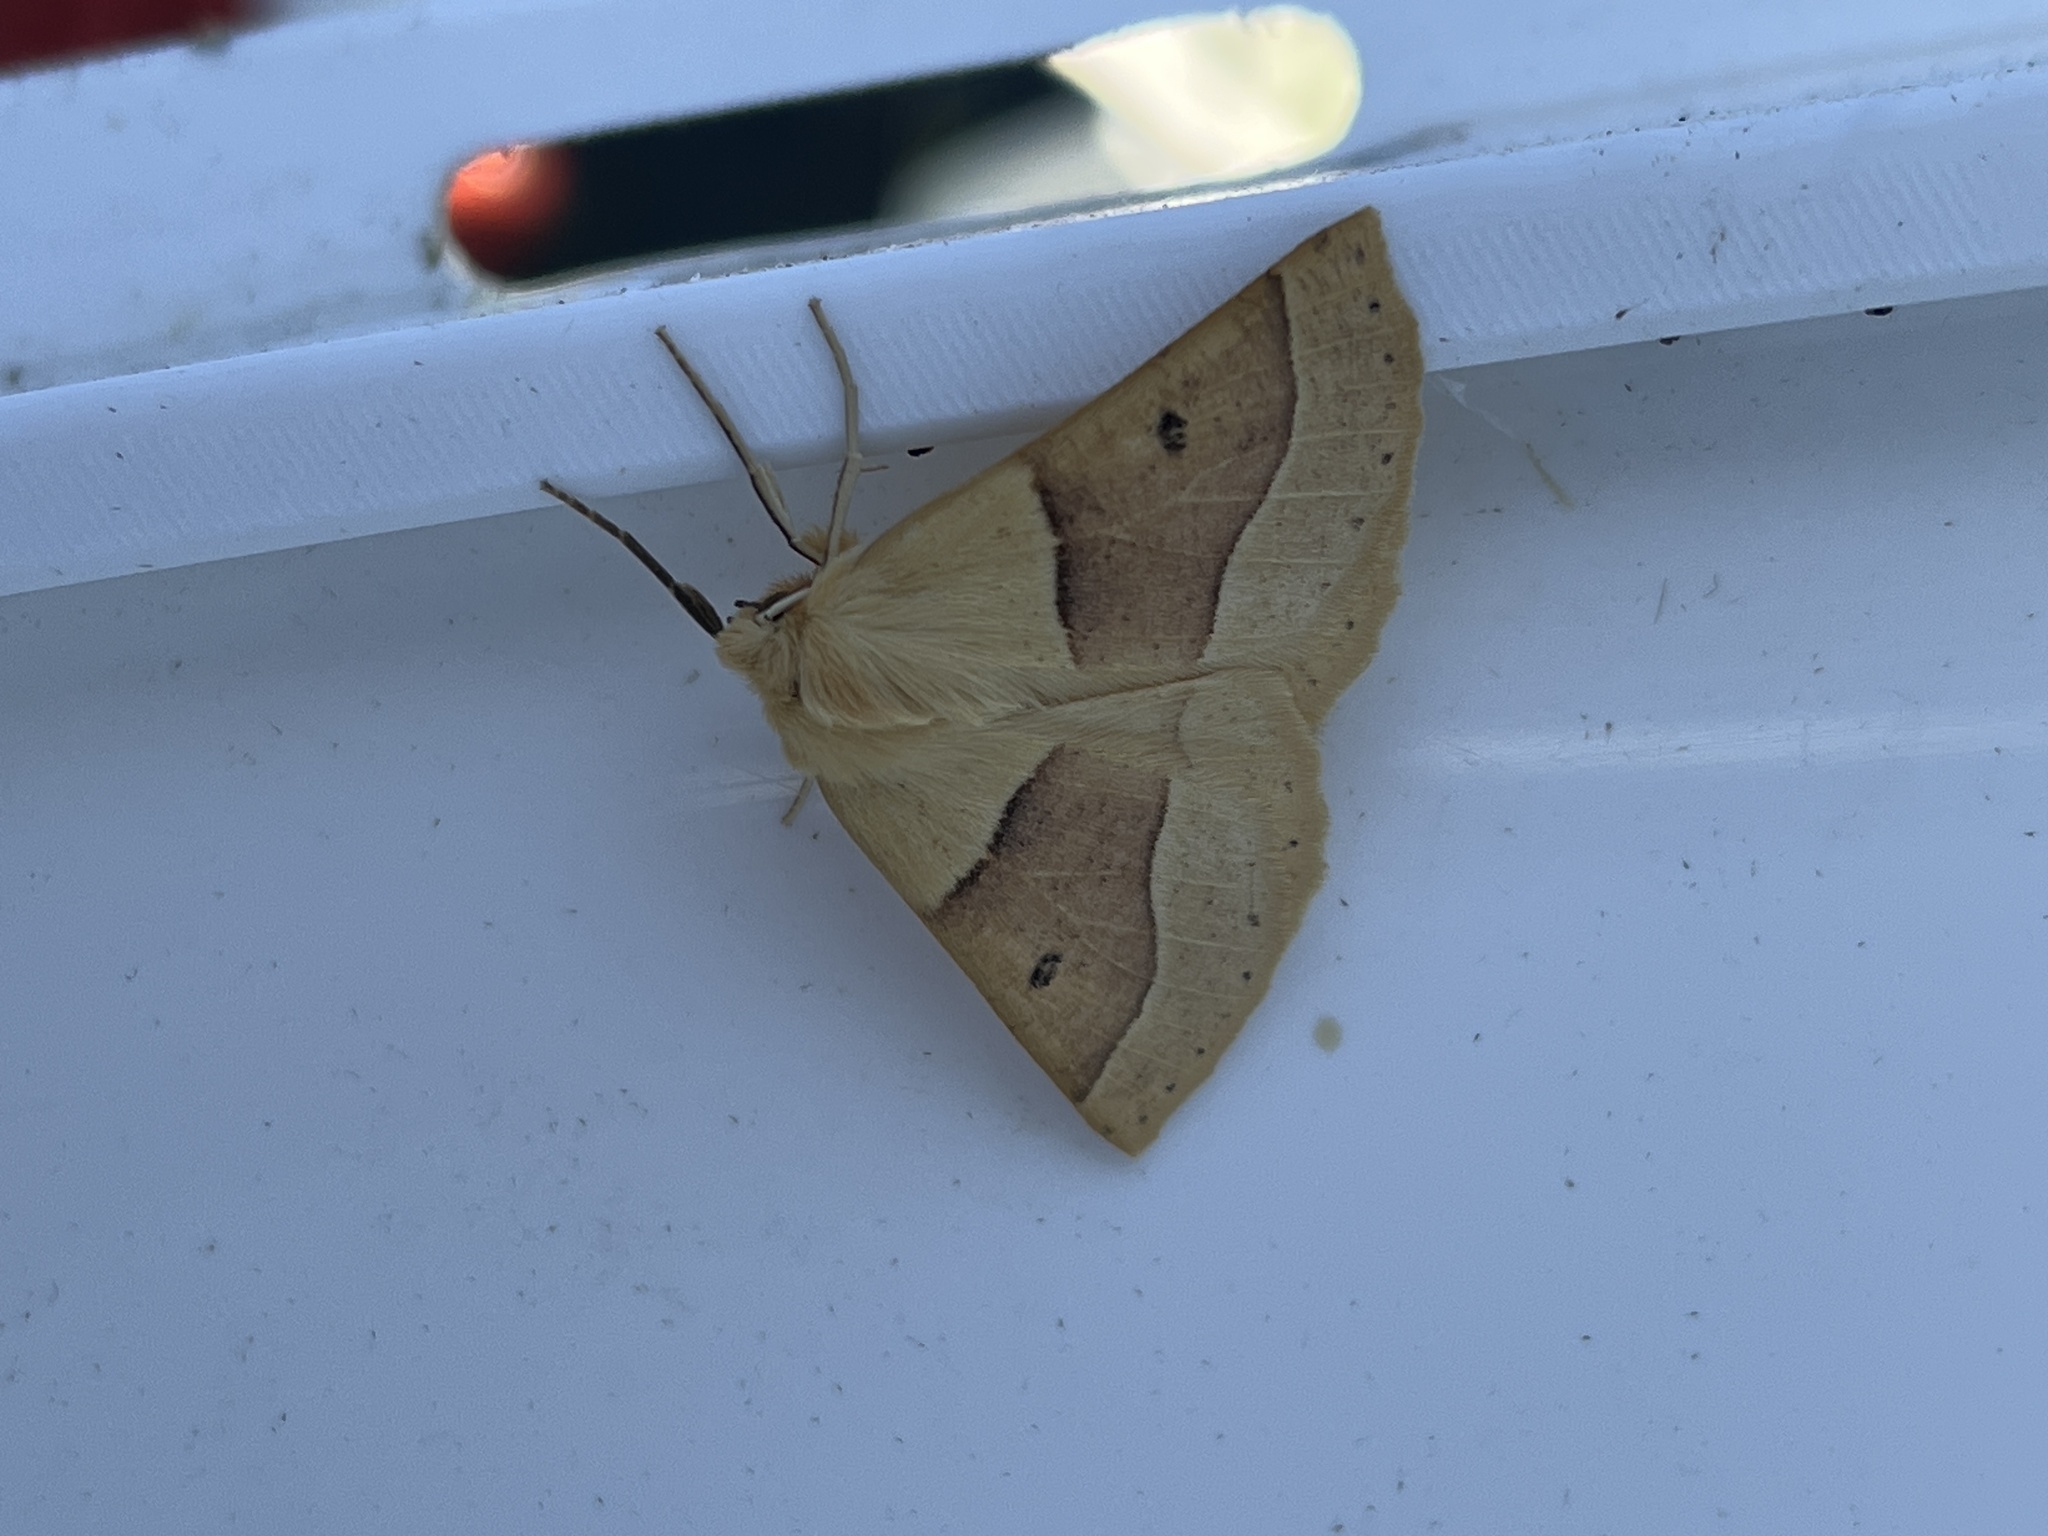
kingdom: Animalia
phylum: Arthropoda
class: Insecta
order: Lepidoptera
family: Geometridae
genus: Crocallis
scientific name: Crocallis elinguaria
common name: Scalloped oak
